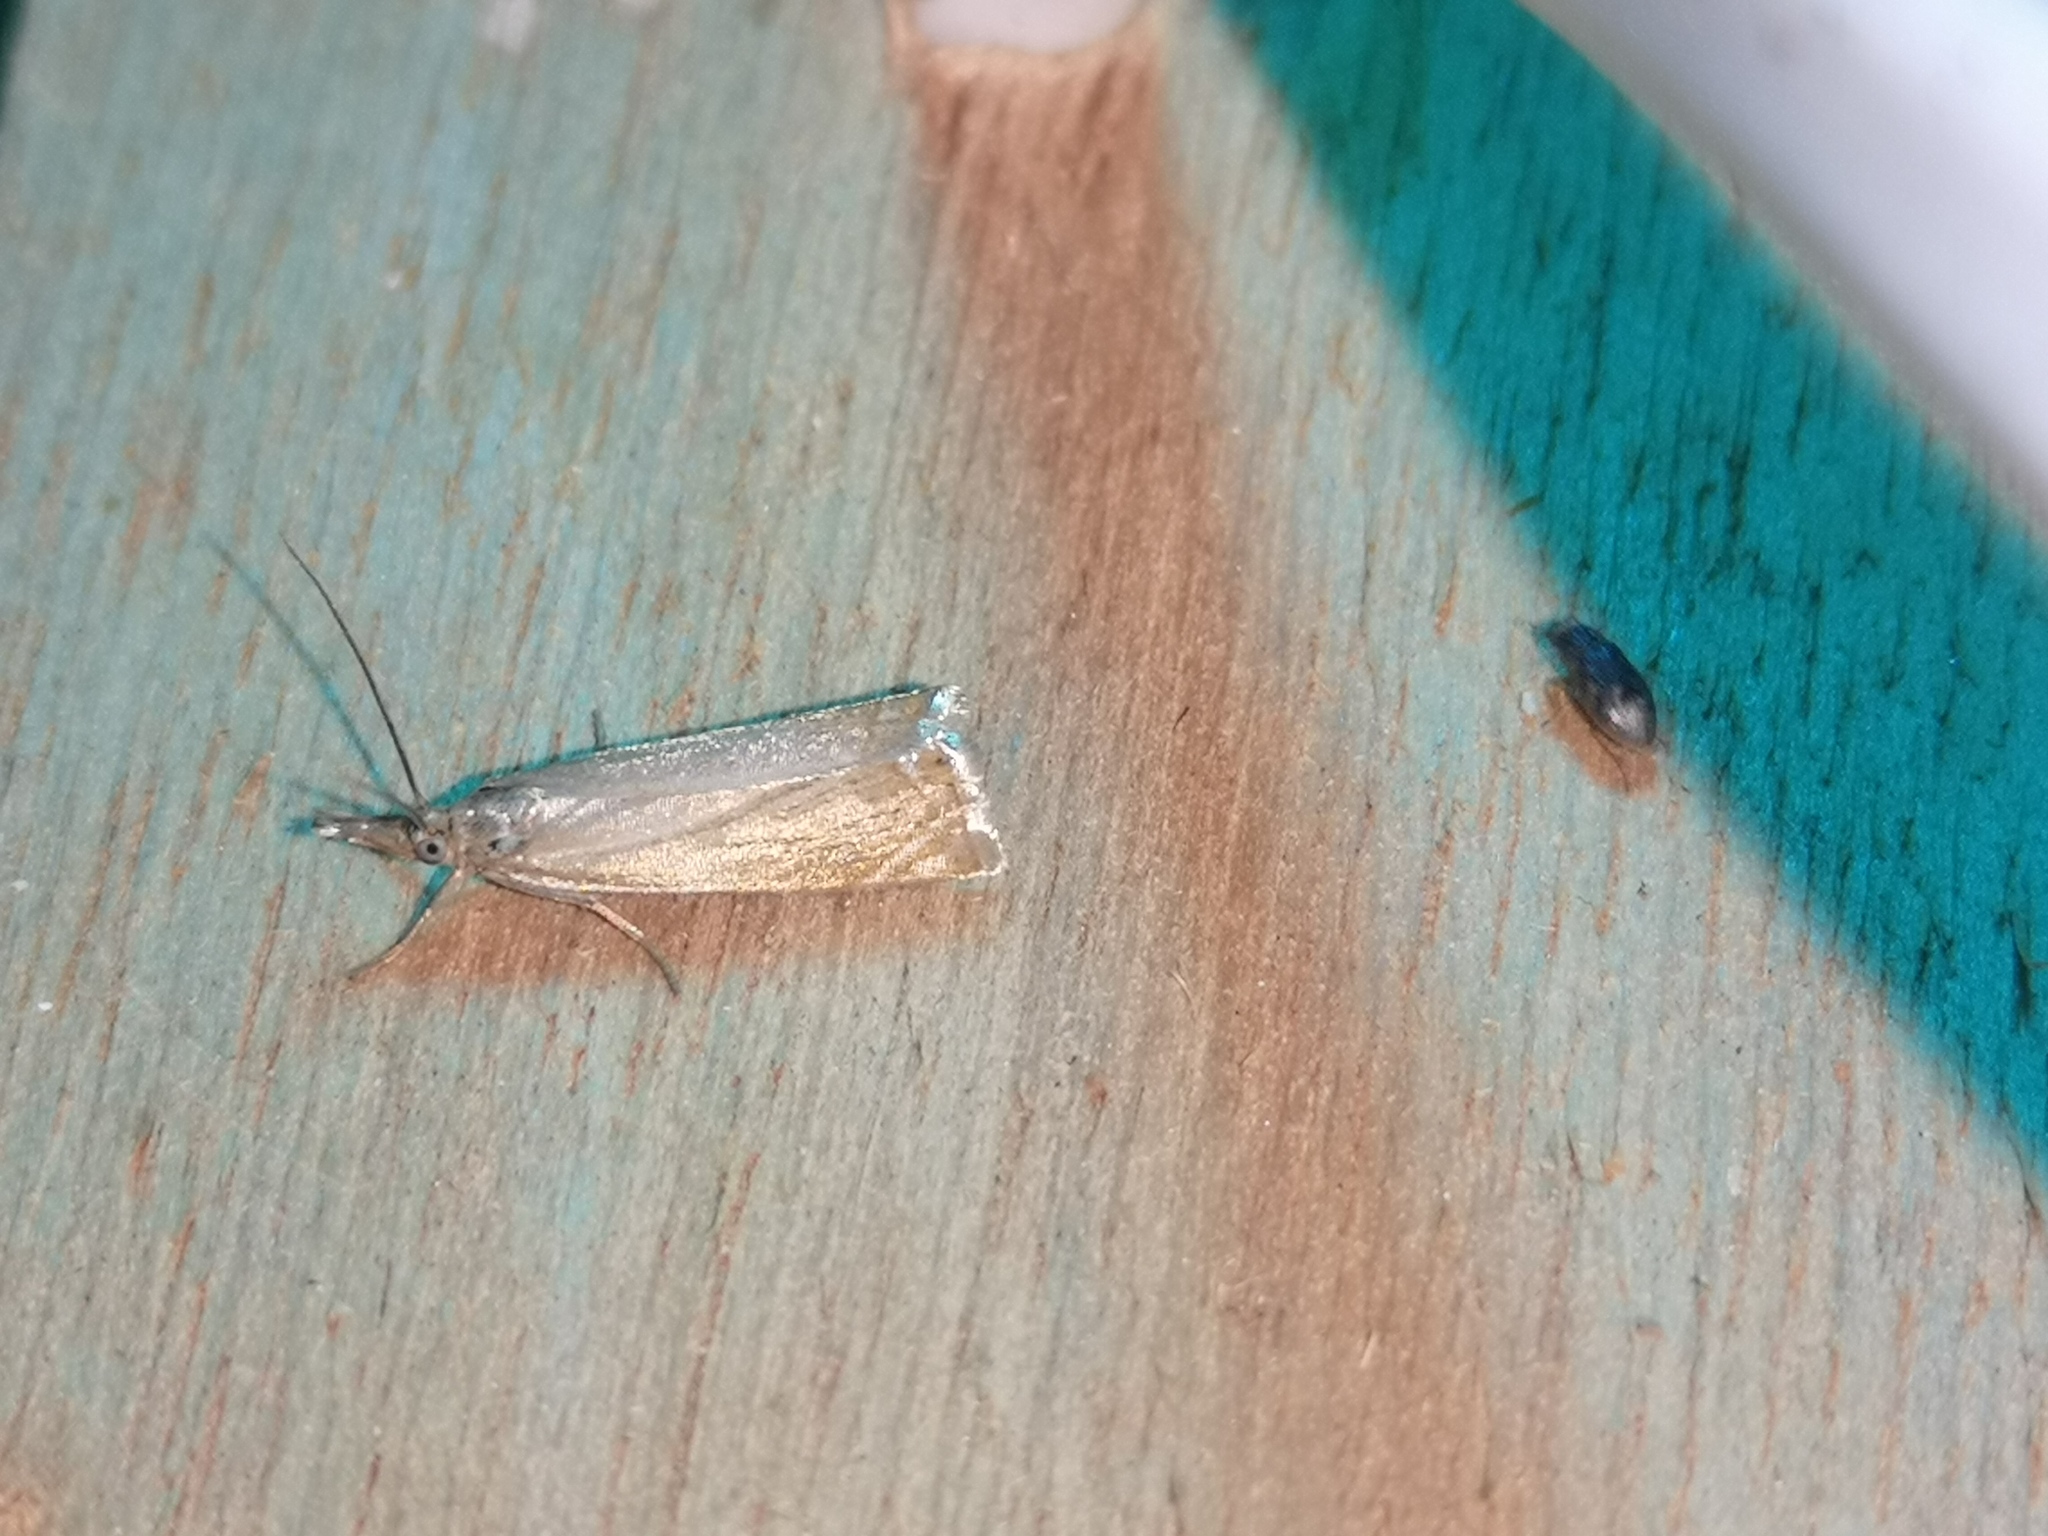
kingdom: Animalia
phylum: Arthropoda
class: Insecta
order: Lepidoptera
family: Crambidae
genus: Chrysoteuchia
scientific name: Chrysoteuchia culmella
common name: Garden grass-veneer
